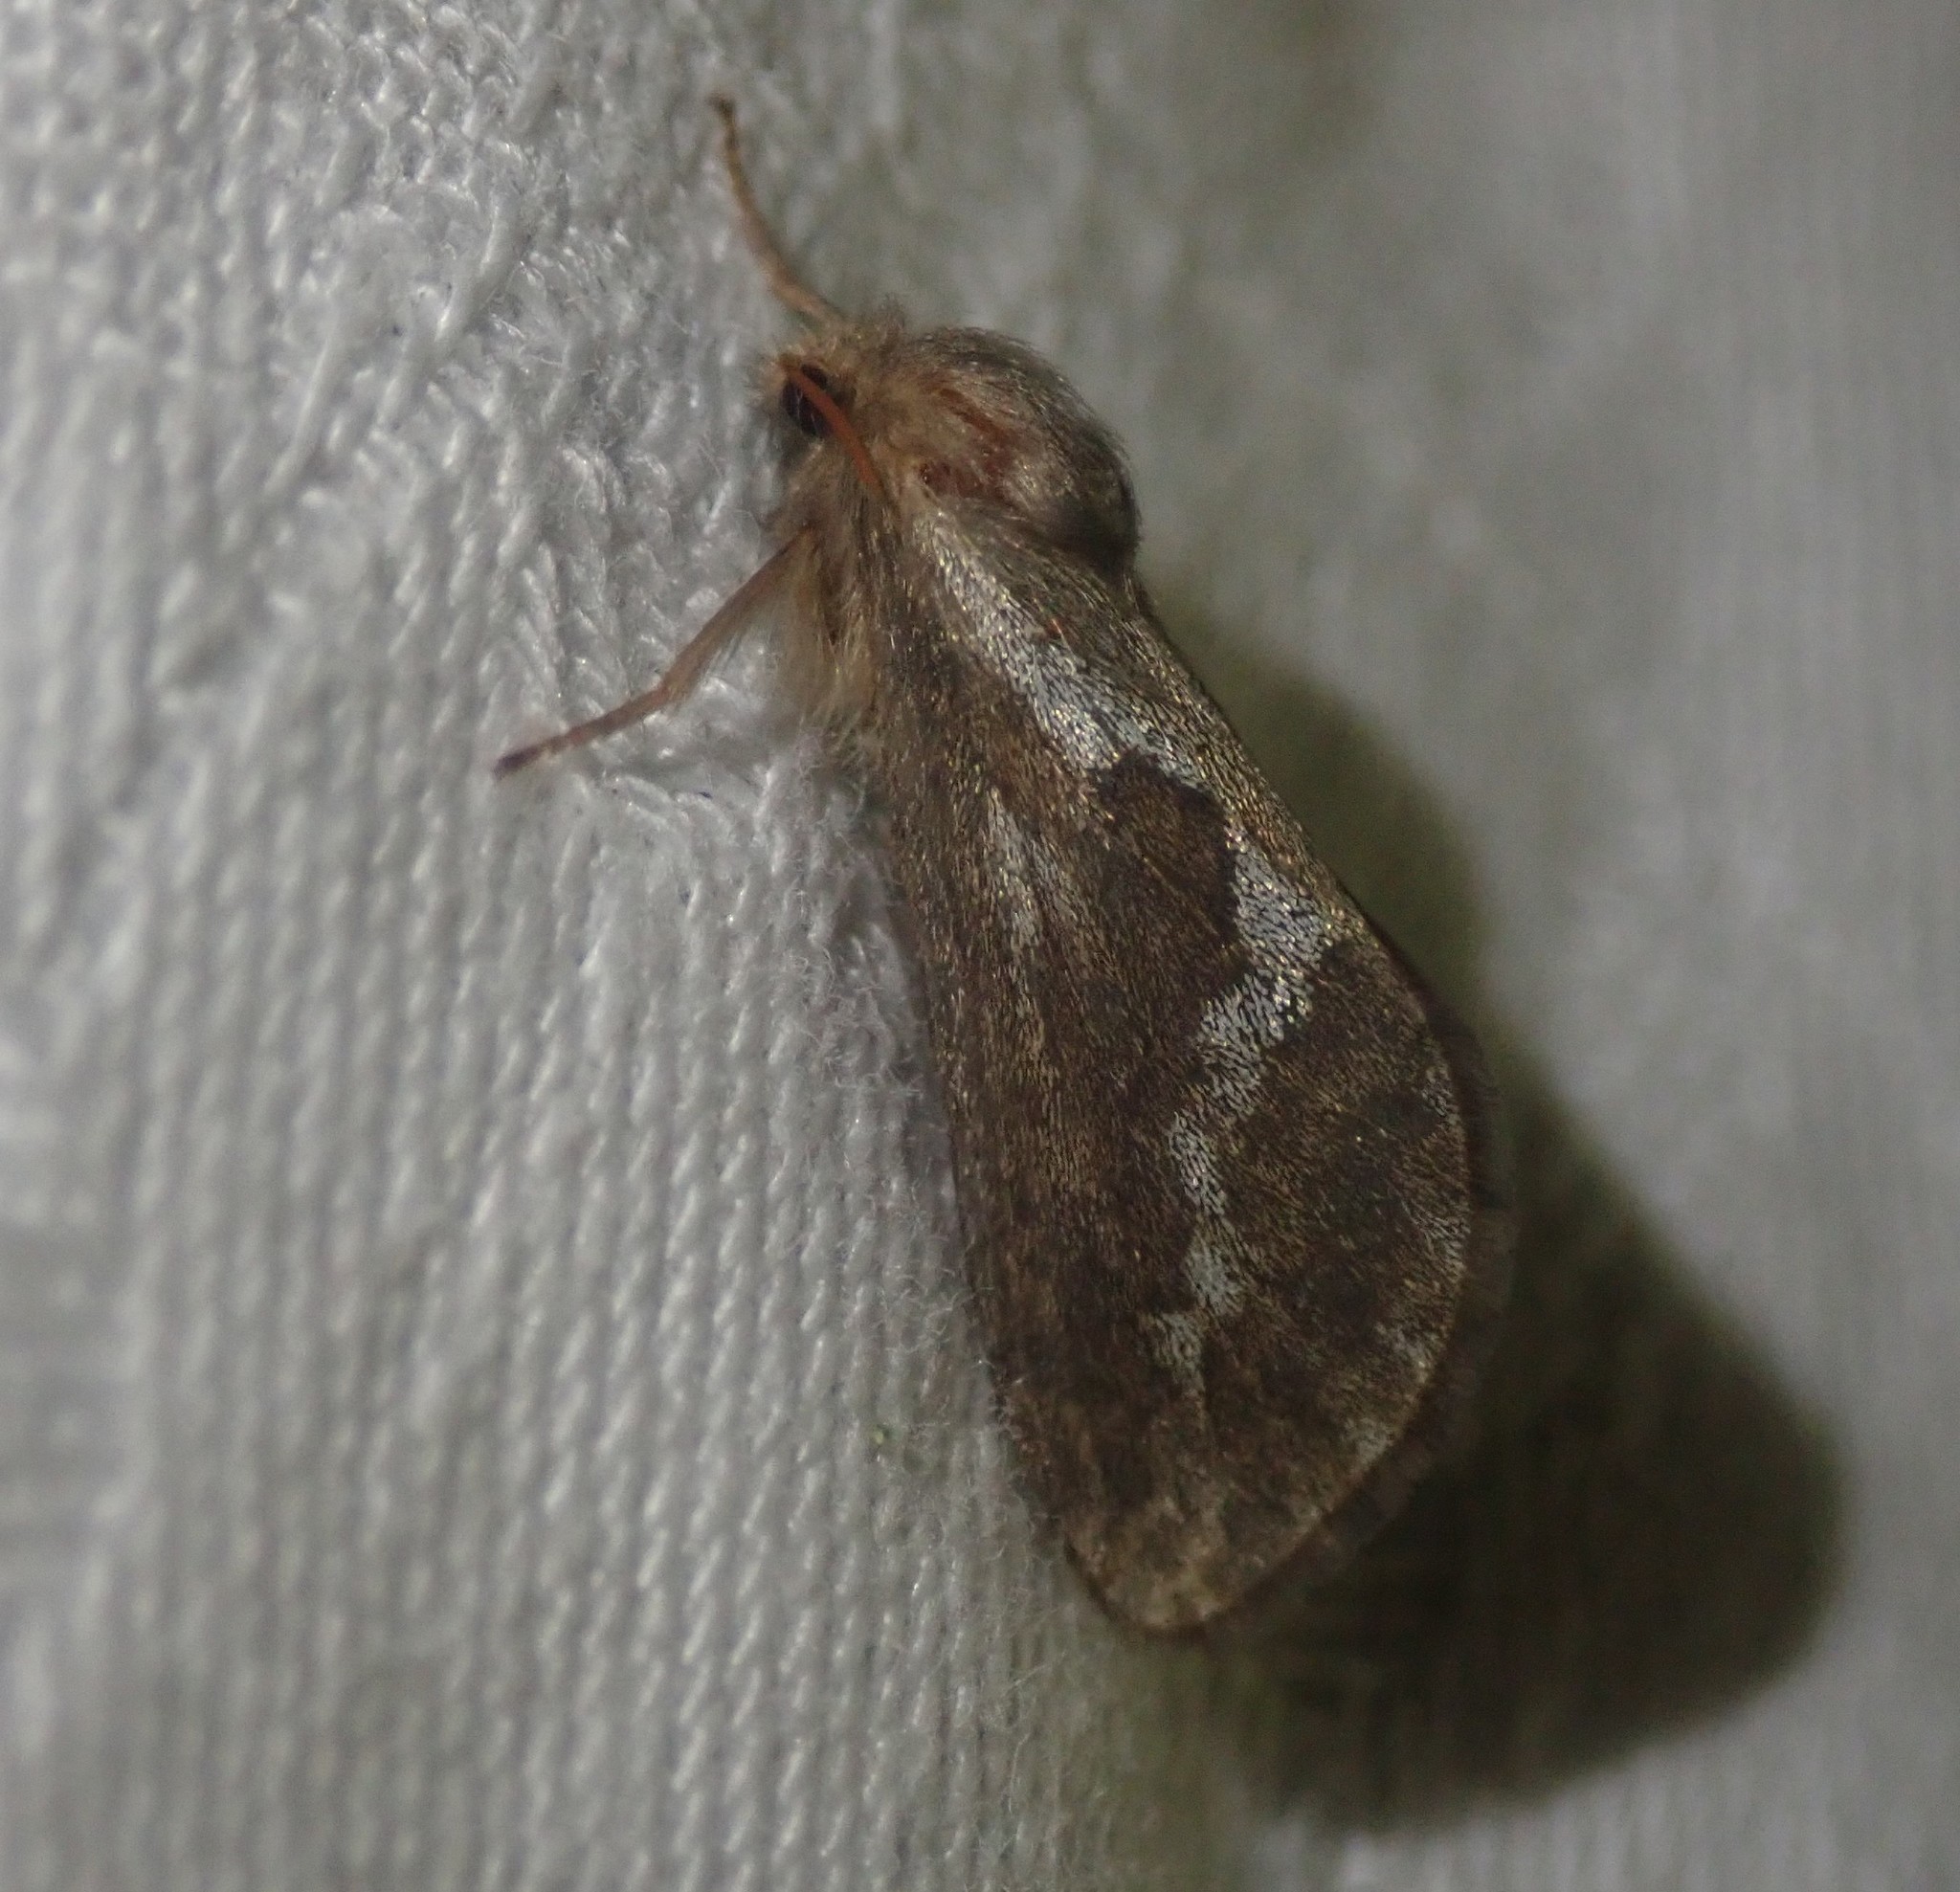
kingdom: Animalia
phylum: Arthropoda
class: Insecta
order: Lepidoptera
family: Hepialidae
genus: Korscheltellus
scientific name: Korscheltellus lupulina
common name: Common swift
